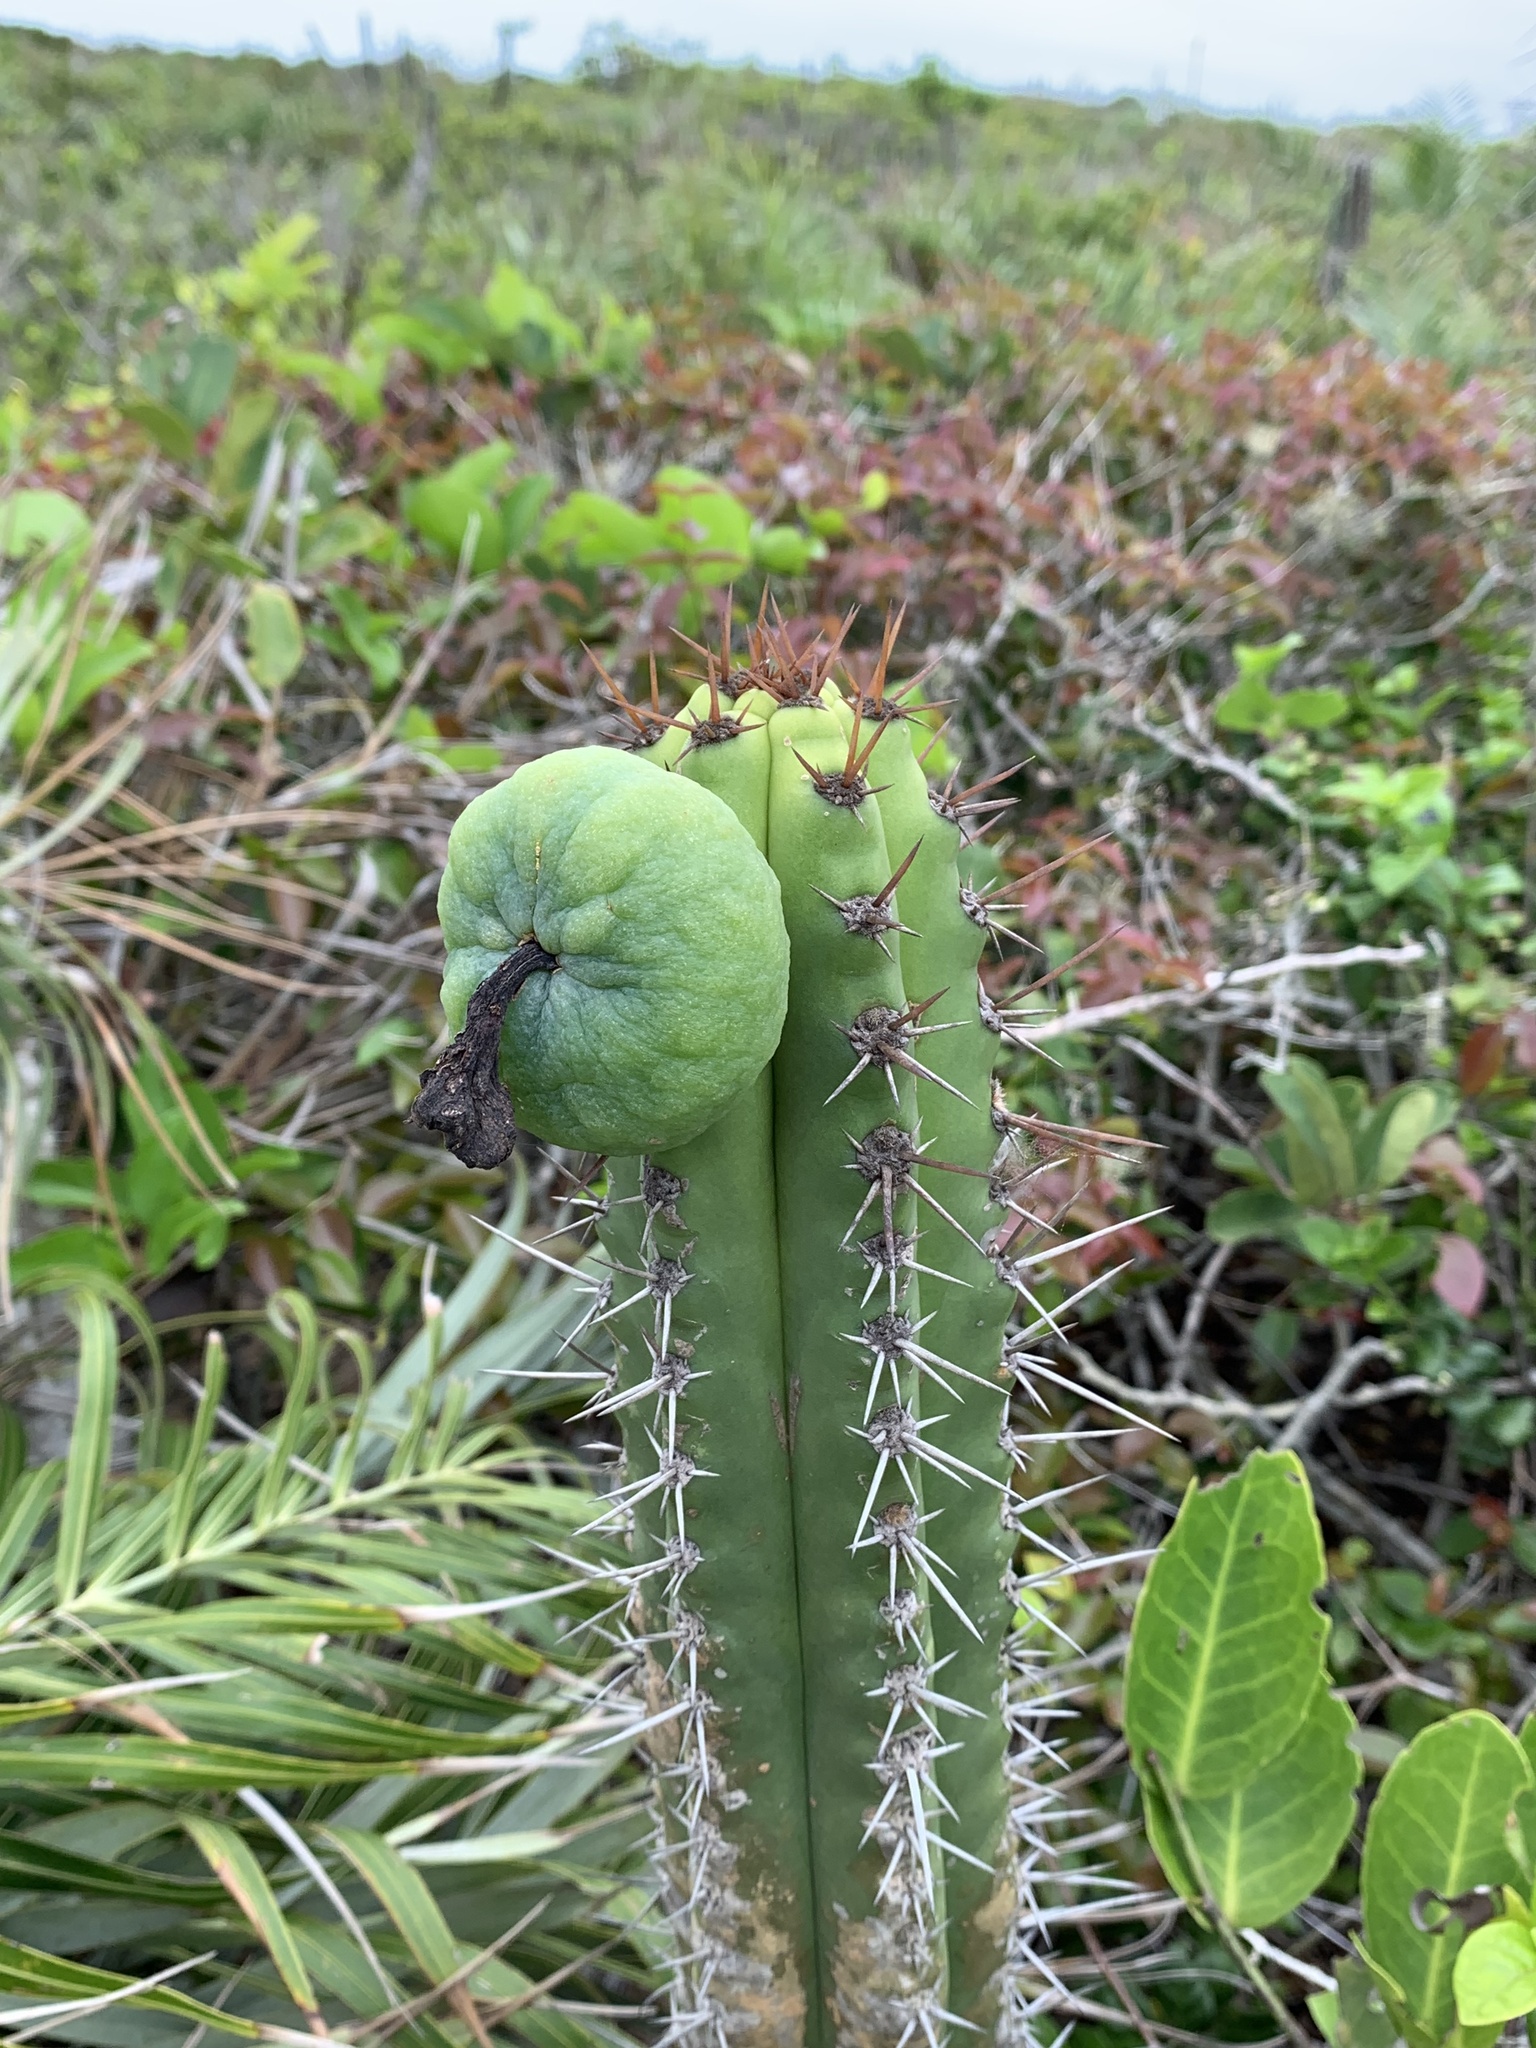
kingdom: Plantae
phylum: Tracheophyta
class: Magnoliopsida
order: Caryophyllales
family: Cactaceae
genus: Pilosocereus
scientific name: Pilosocereus arrabidae
